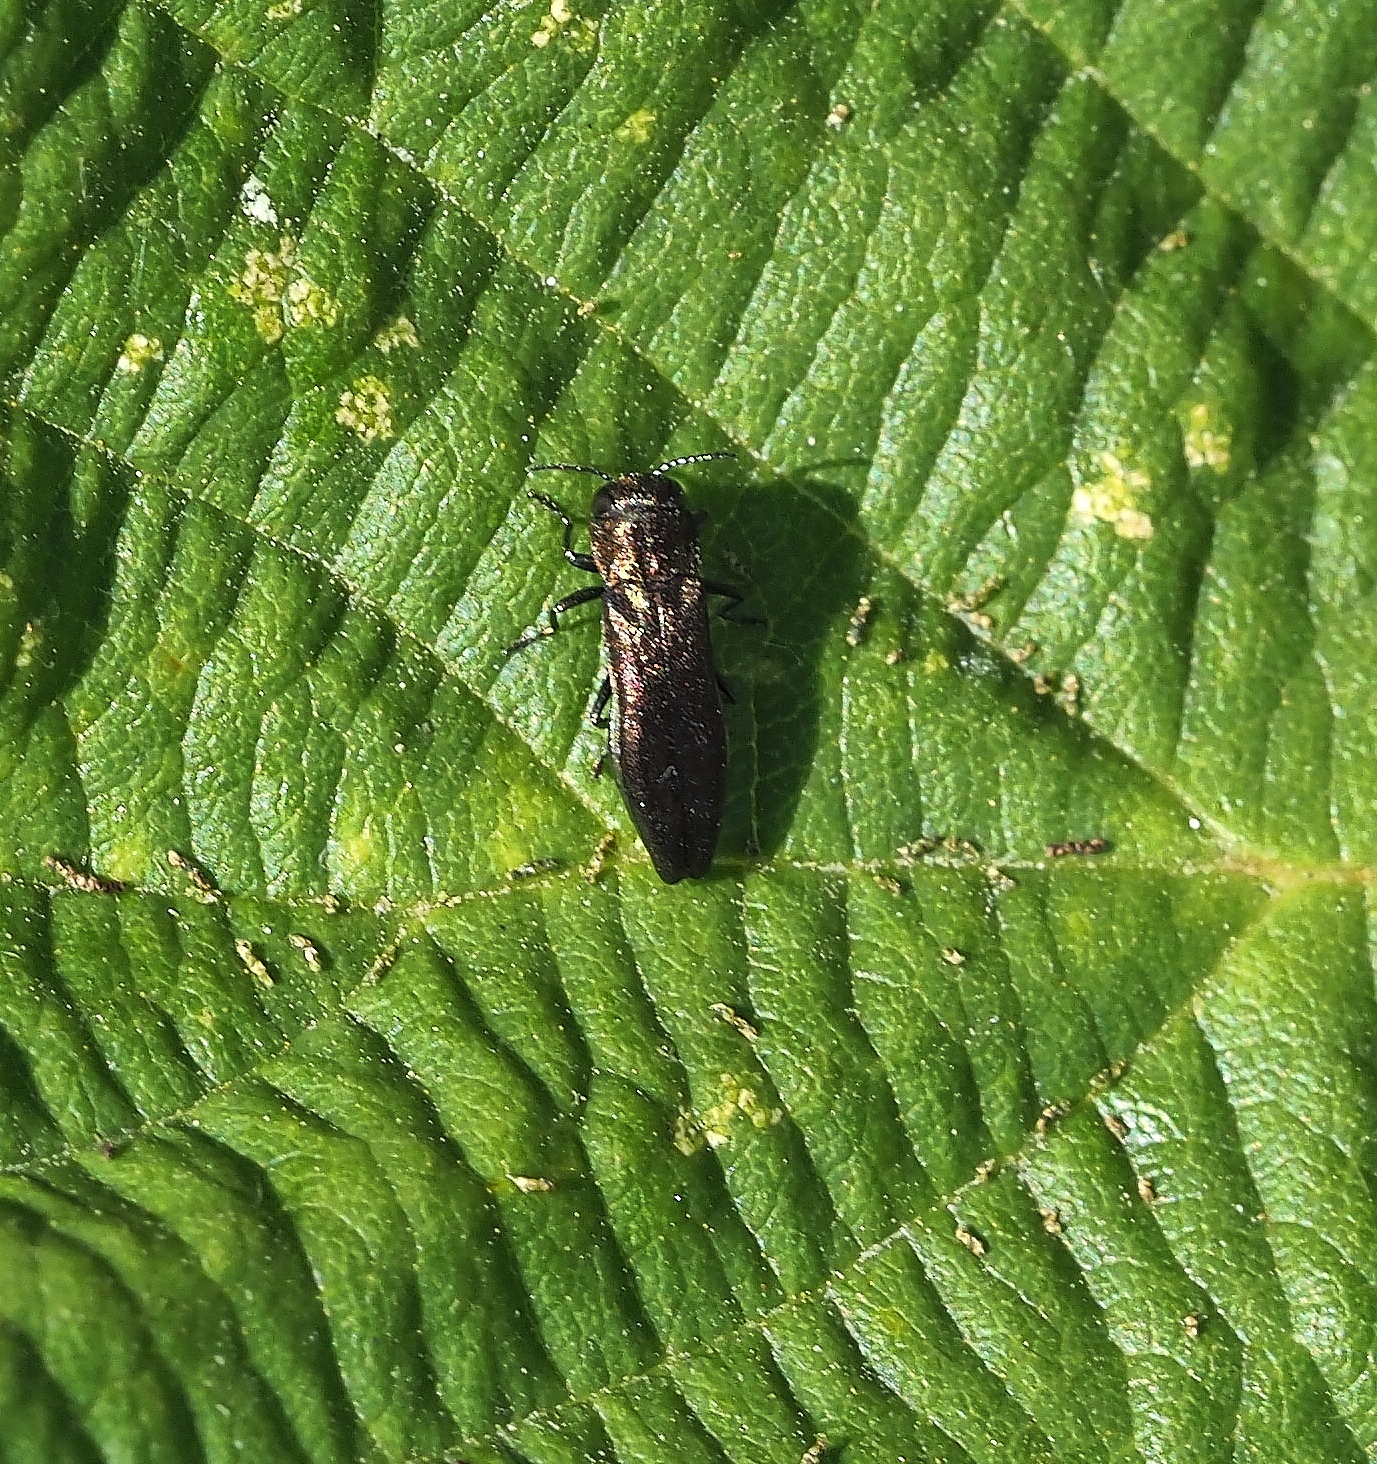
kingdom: Animalia
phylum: Arthropoda
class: Insecta
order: Coleoptera
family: Buprestidae
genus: Agrilus
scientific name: Agrilus cuprescens
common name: Rose stem girdler
